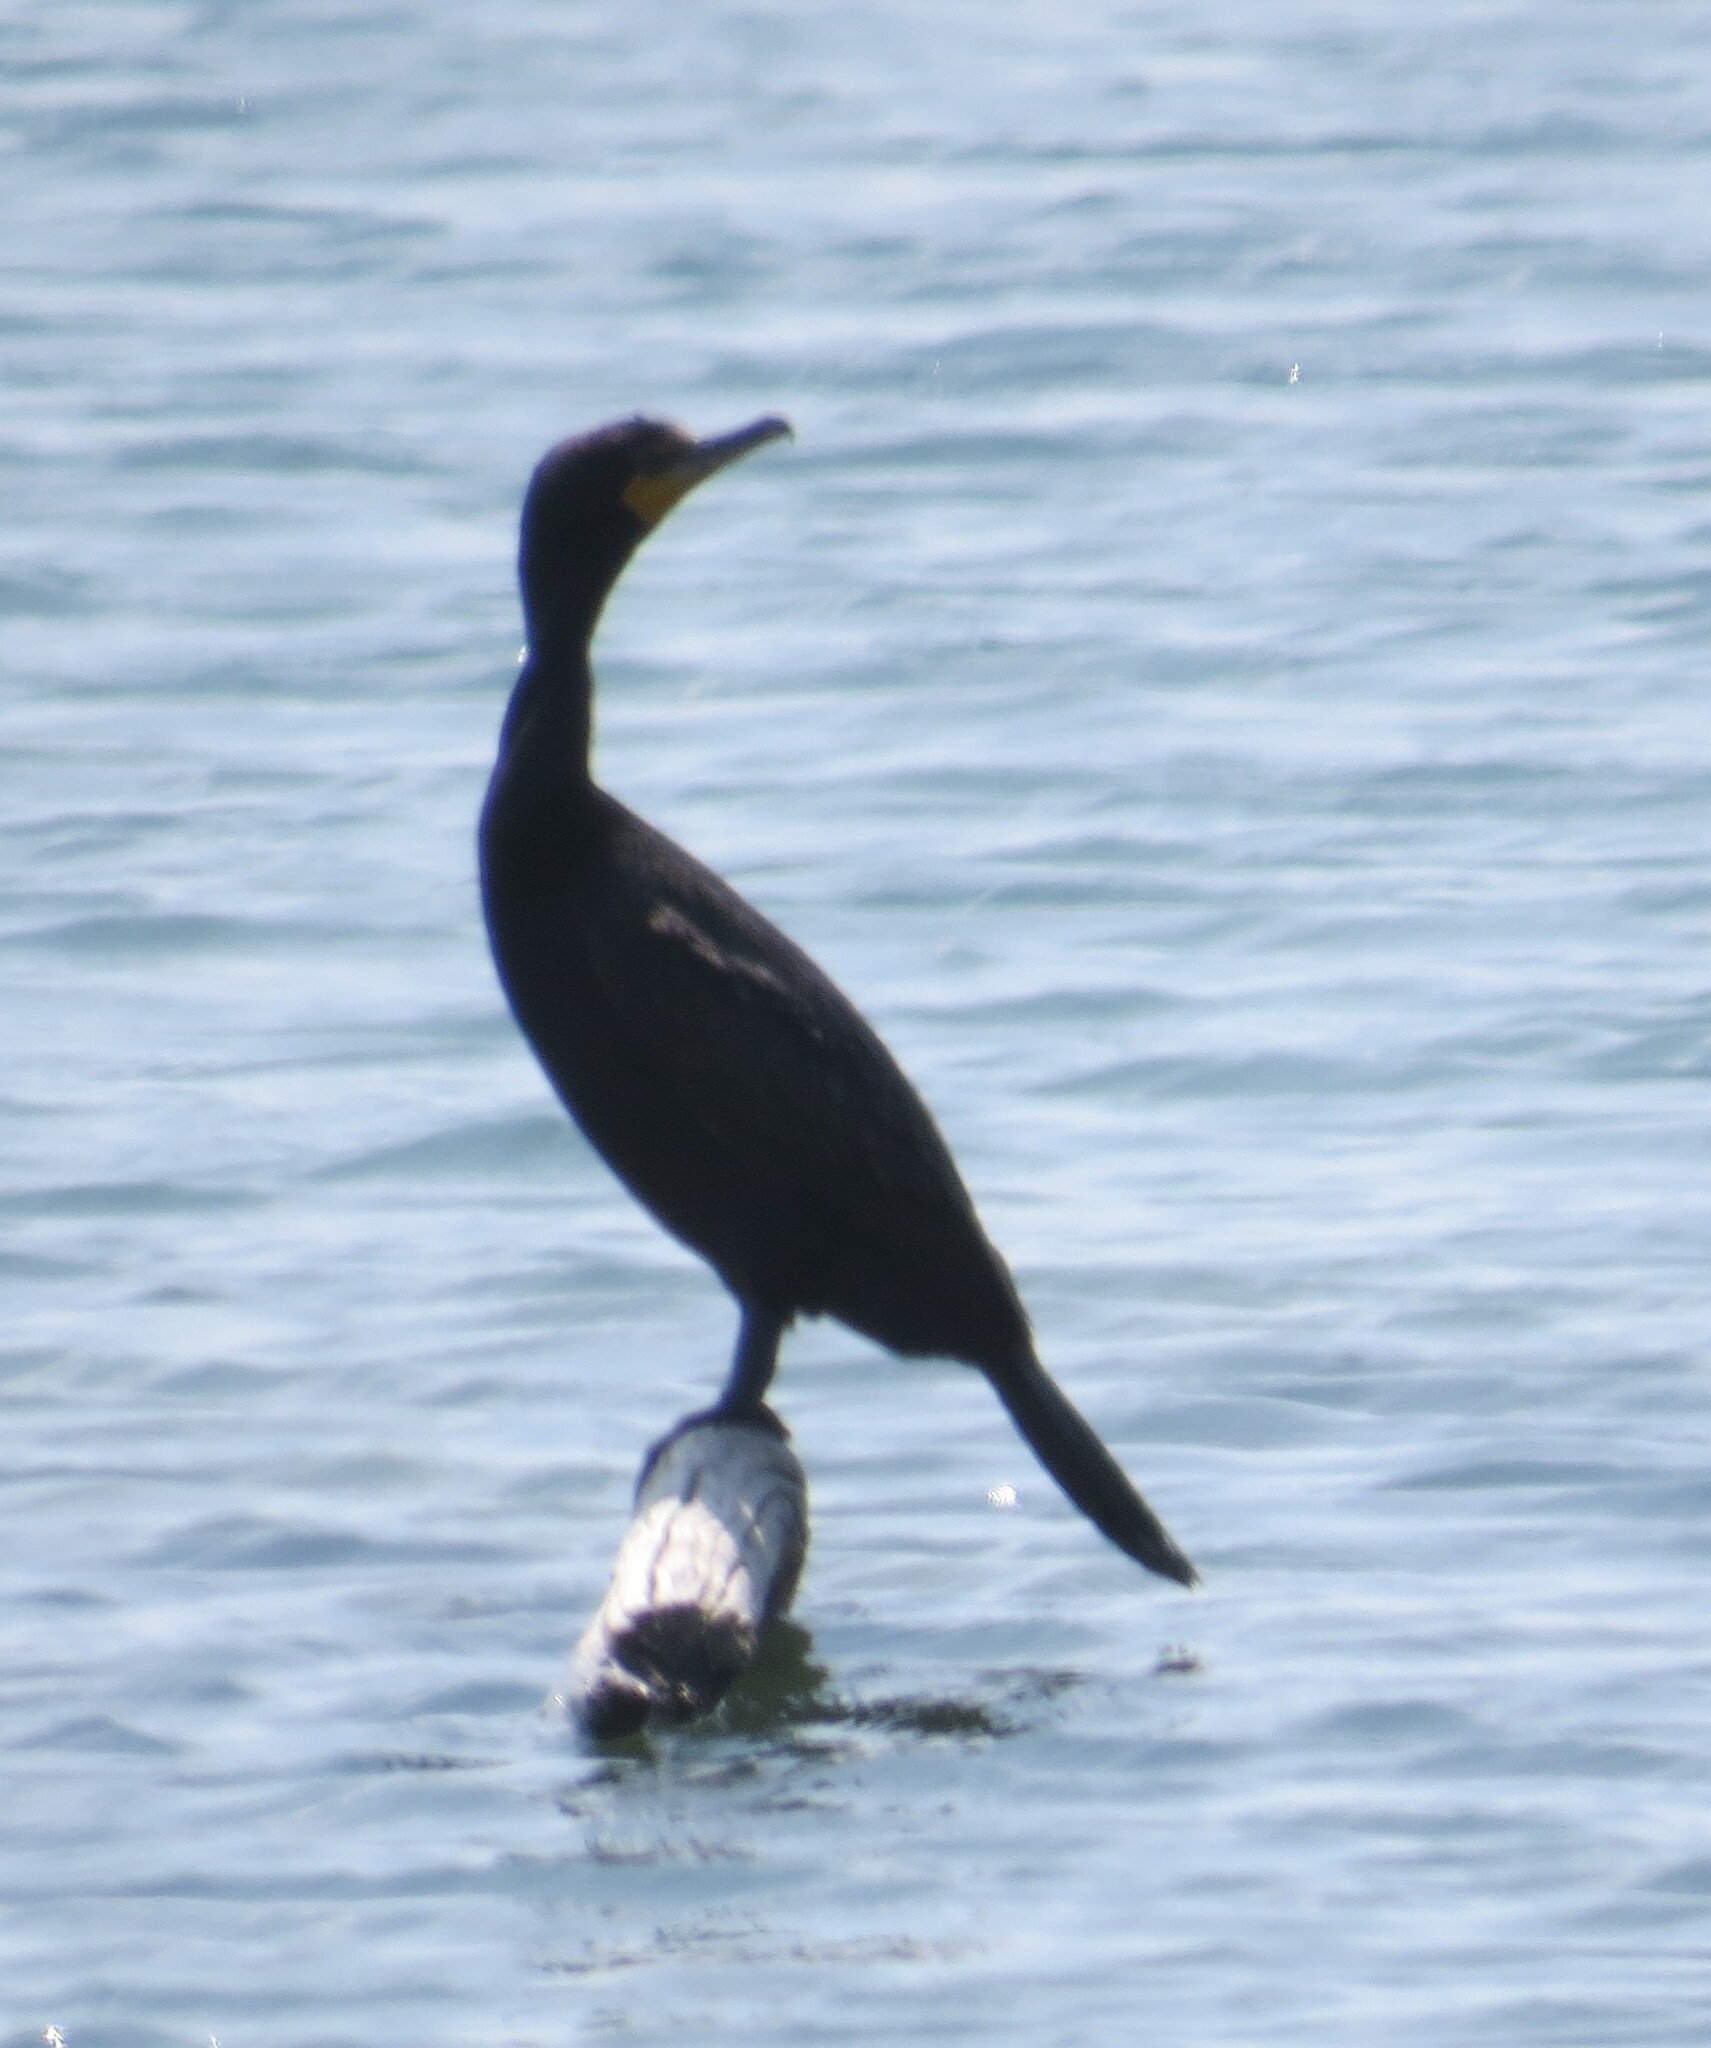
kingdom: Animalia
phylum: Chordata
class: Aves
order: Suliformes
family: Phalacrocoracidae
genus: Phalacrocorax
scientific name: Phalacrocorax auritus
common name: Double-crested cormorant
